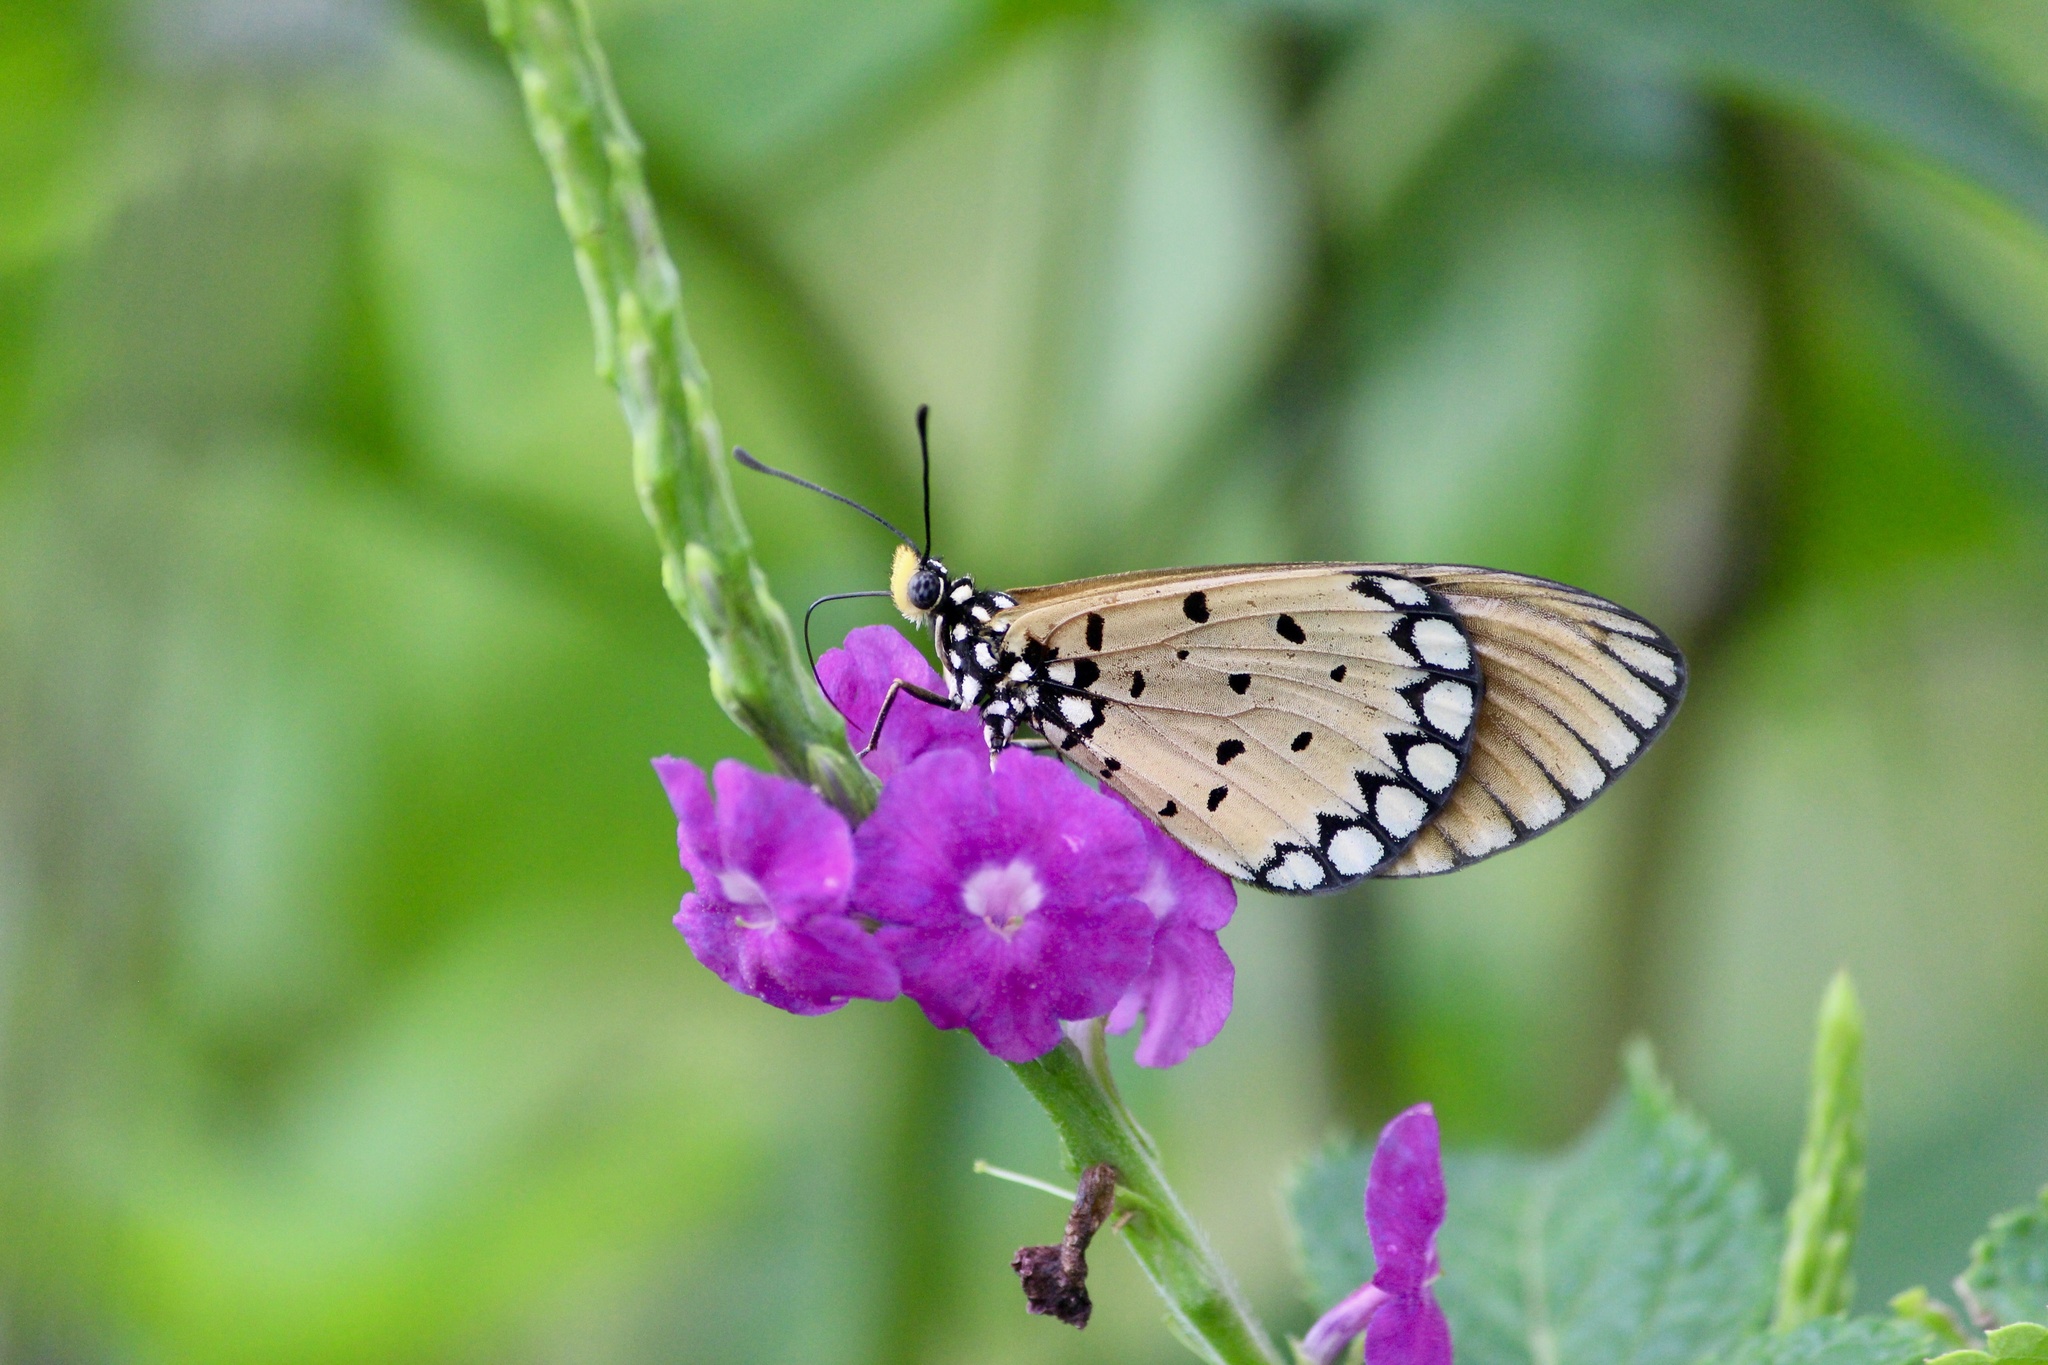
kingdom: Animalia
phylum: Arthropoda
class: Insecta
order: Lepidoptera
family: Nymphalidae
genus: Acraea
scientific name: Acraea terpsicore
